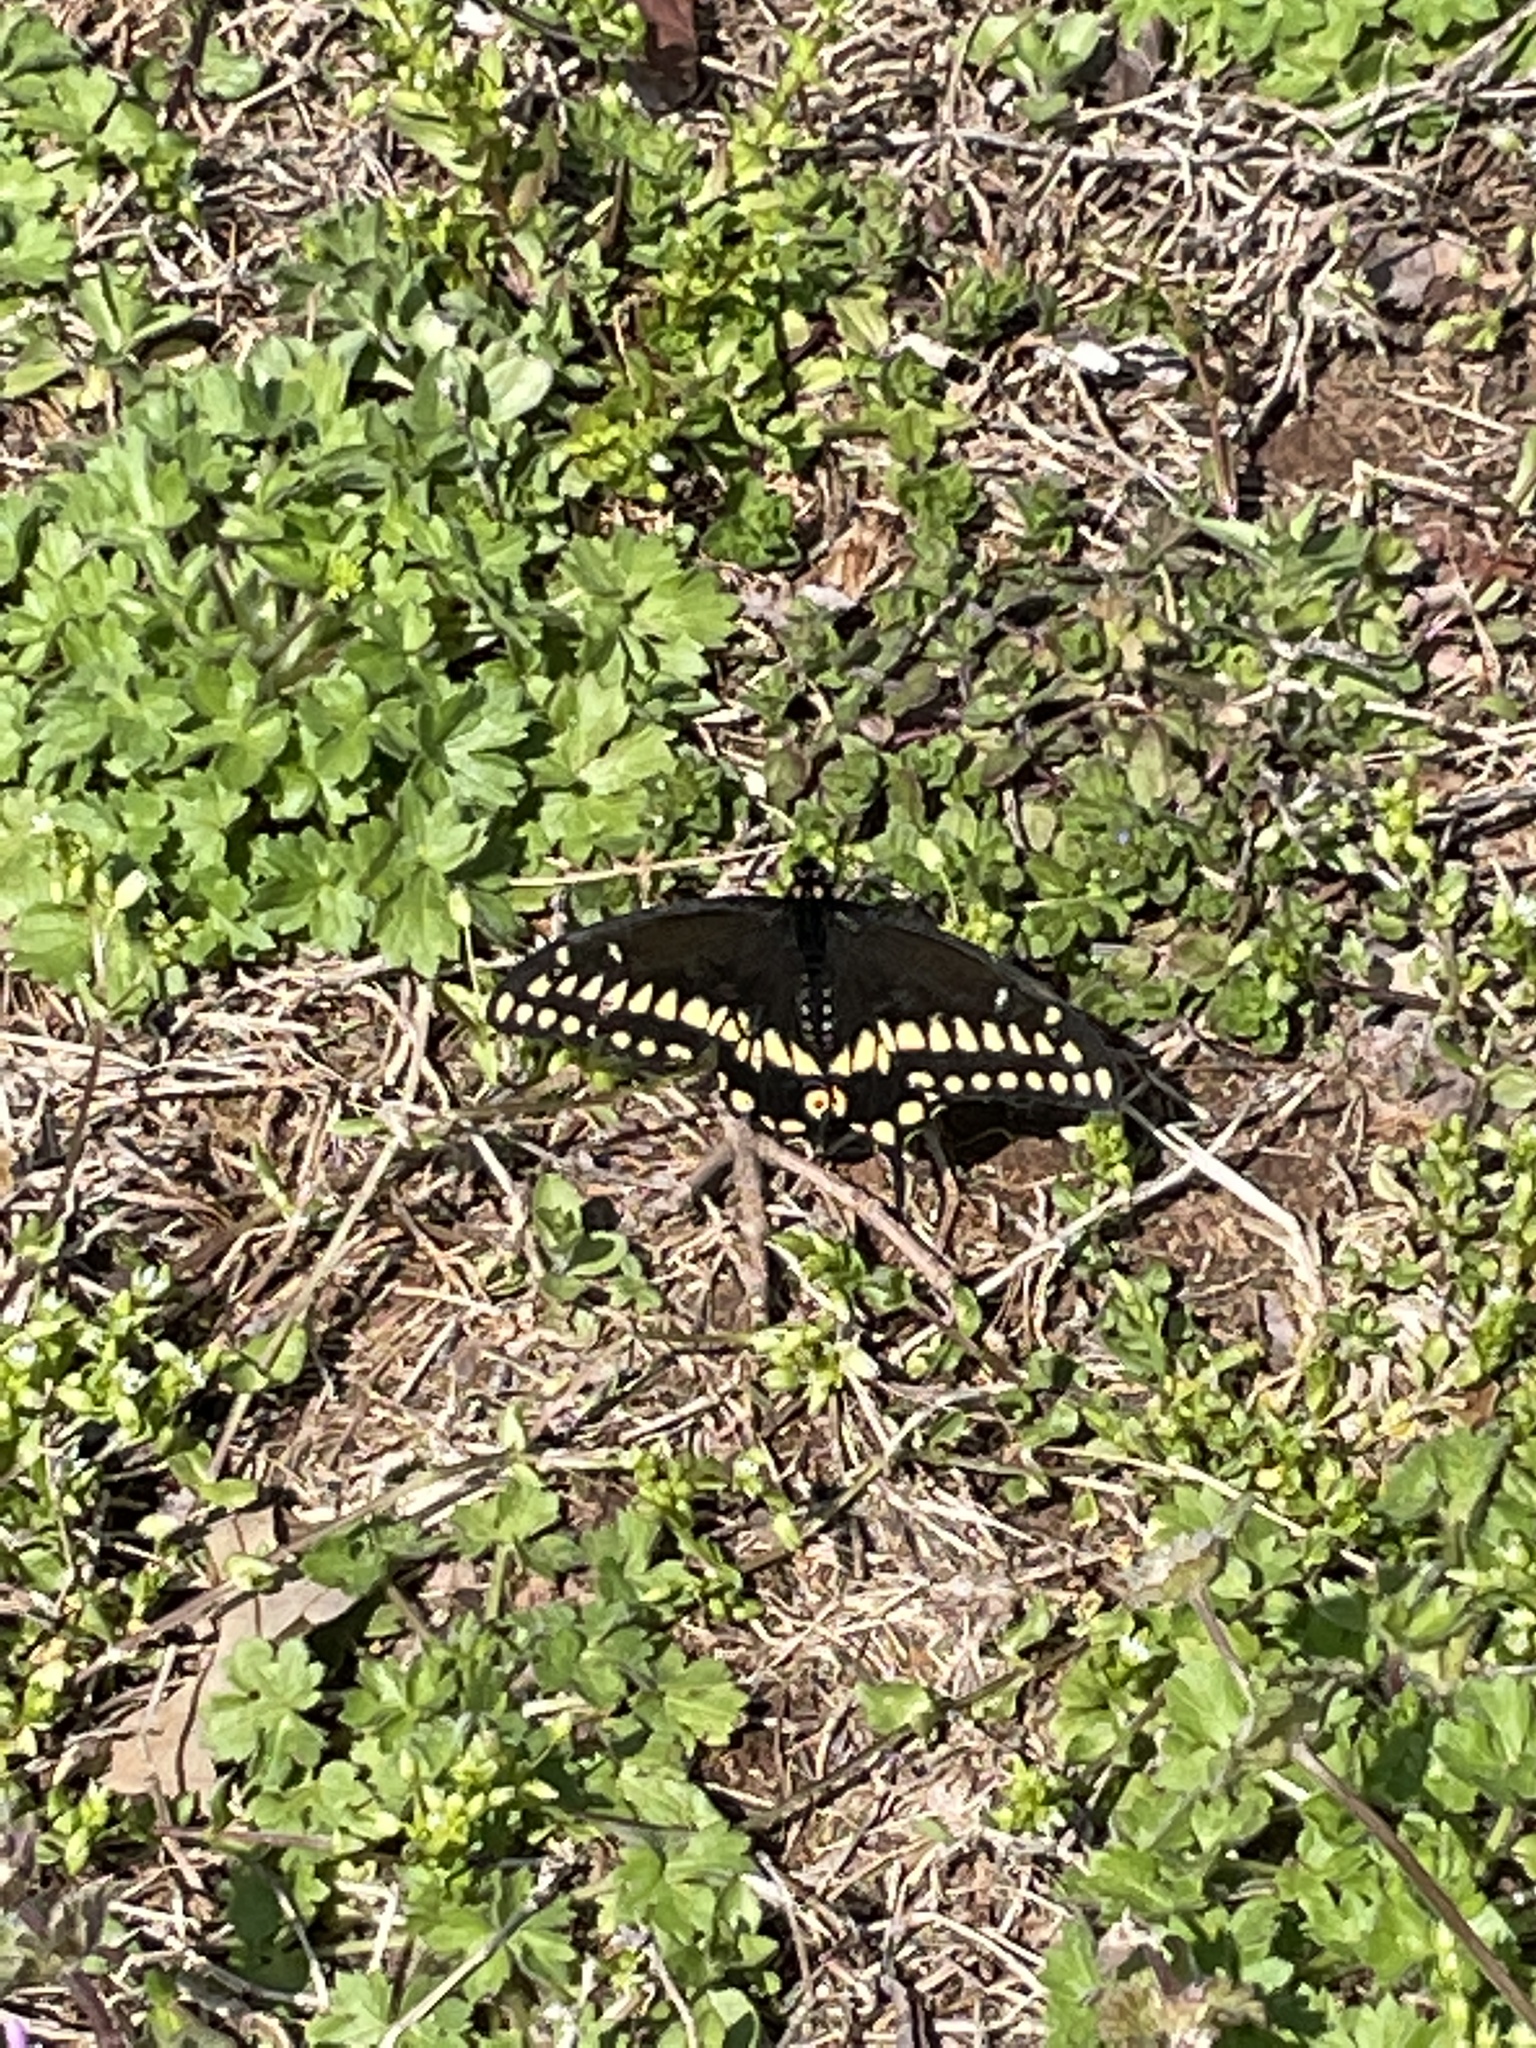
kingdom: Animalia
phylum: Arthropoda
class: Insecta
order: Lepidoptera
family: Papilionidae
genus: Papilio
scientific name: Papilio polyxenes
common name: Black swallowtail
